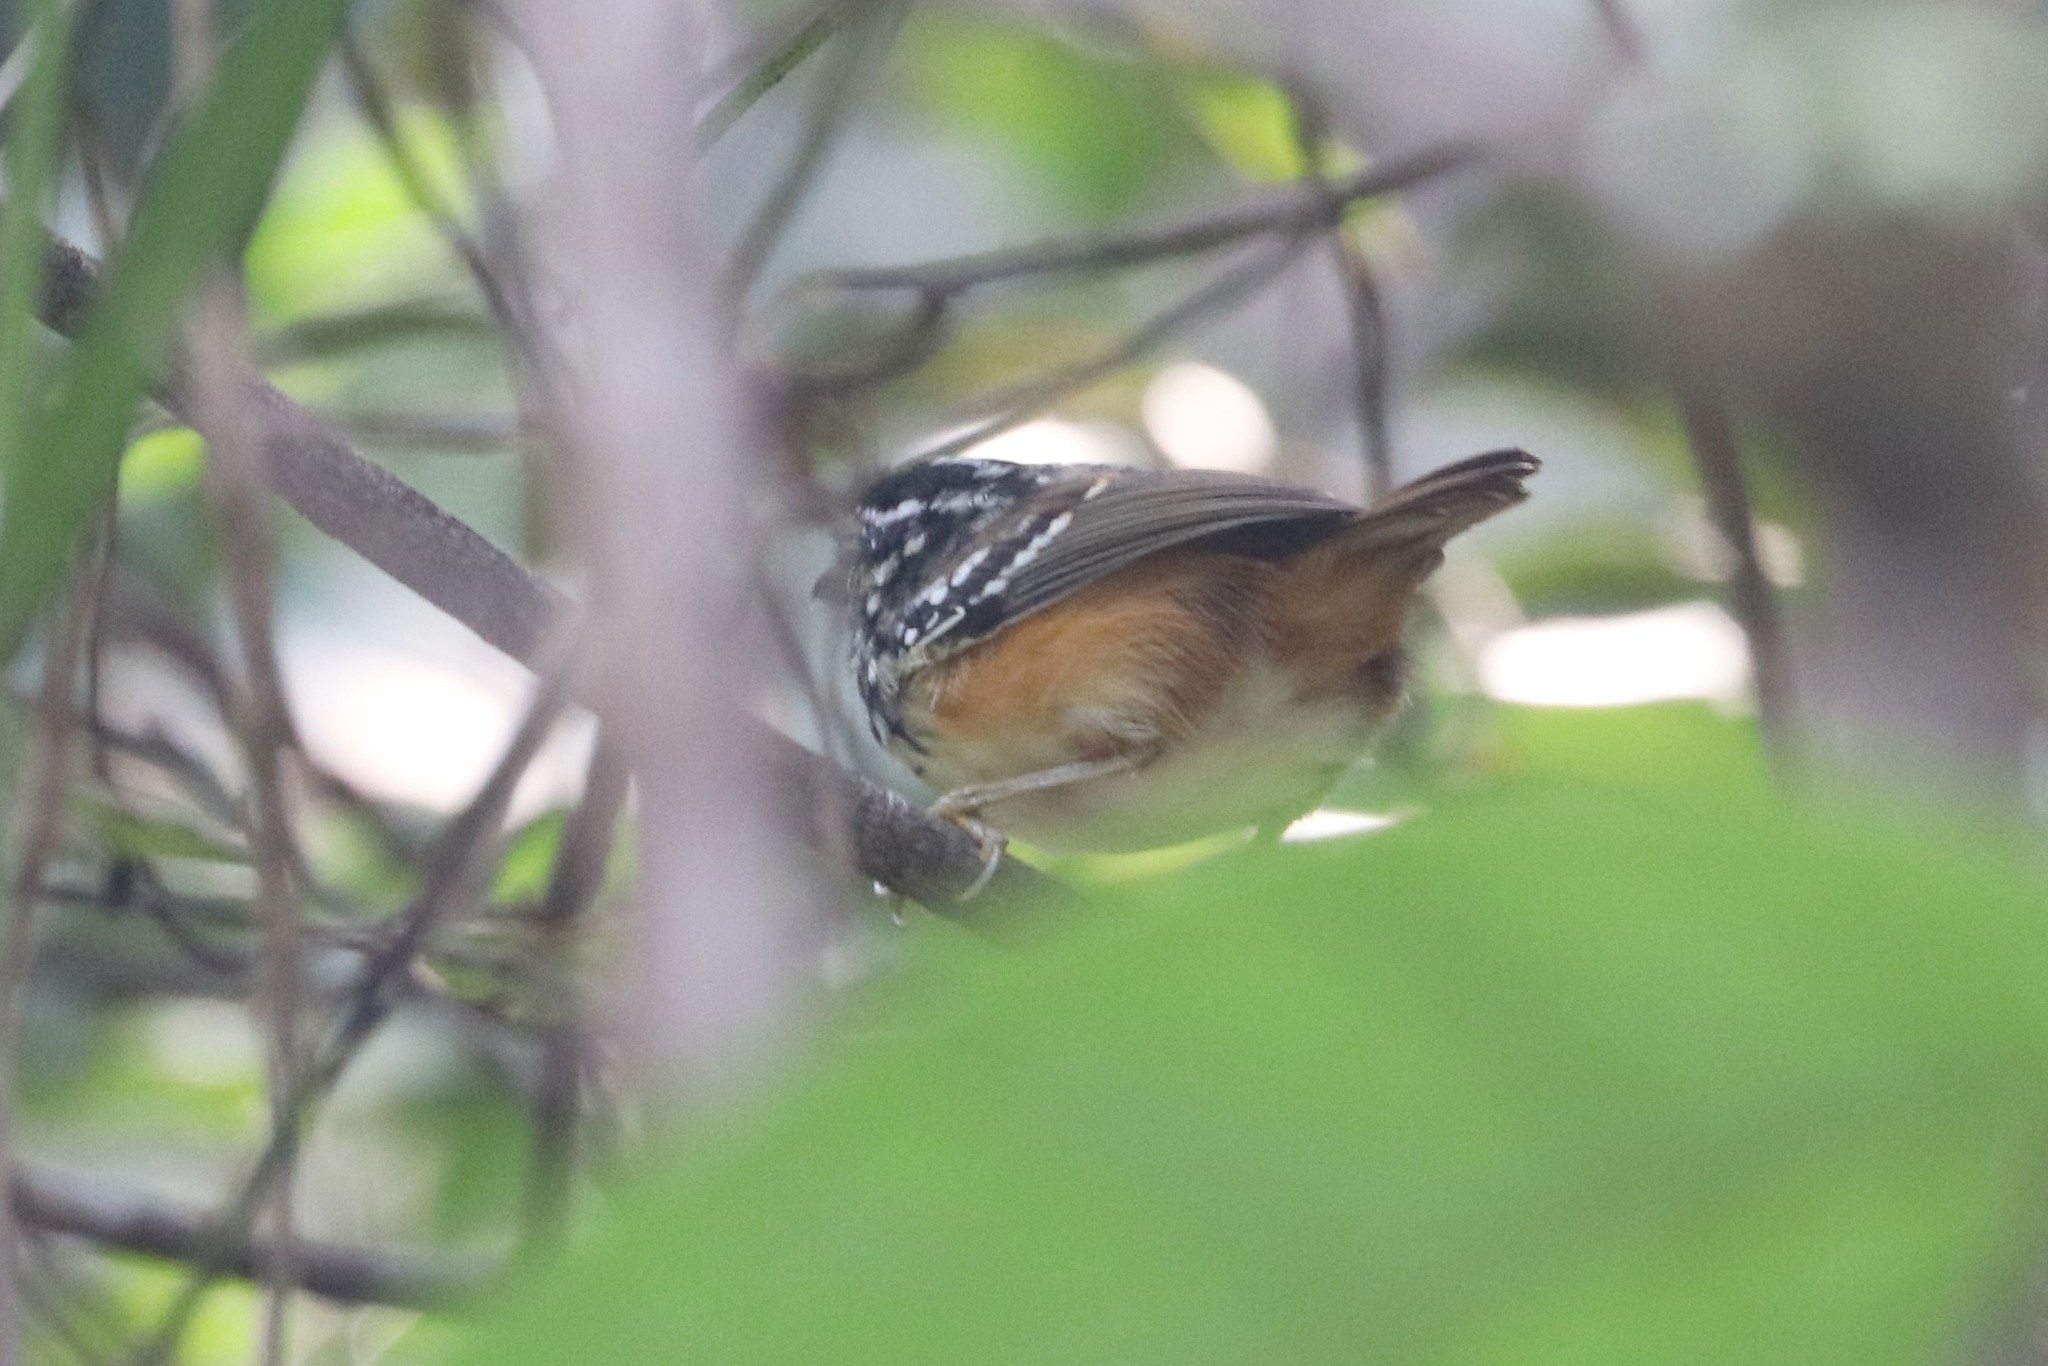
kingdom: Animalia
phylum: Chordata
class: Aves
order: Passeriformes
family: Thamnophilidae
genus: Hypocnemis
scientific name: Hypocnemis flavescens
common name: Imeri warbling-antbird
